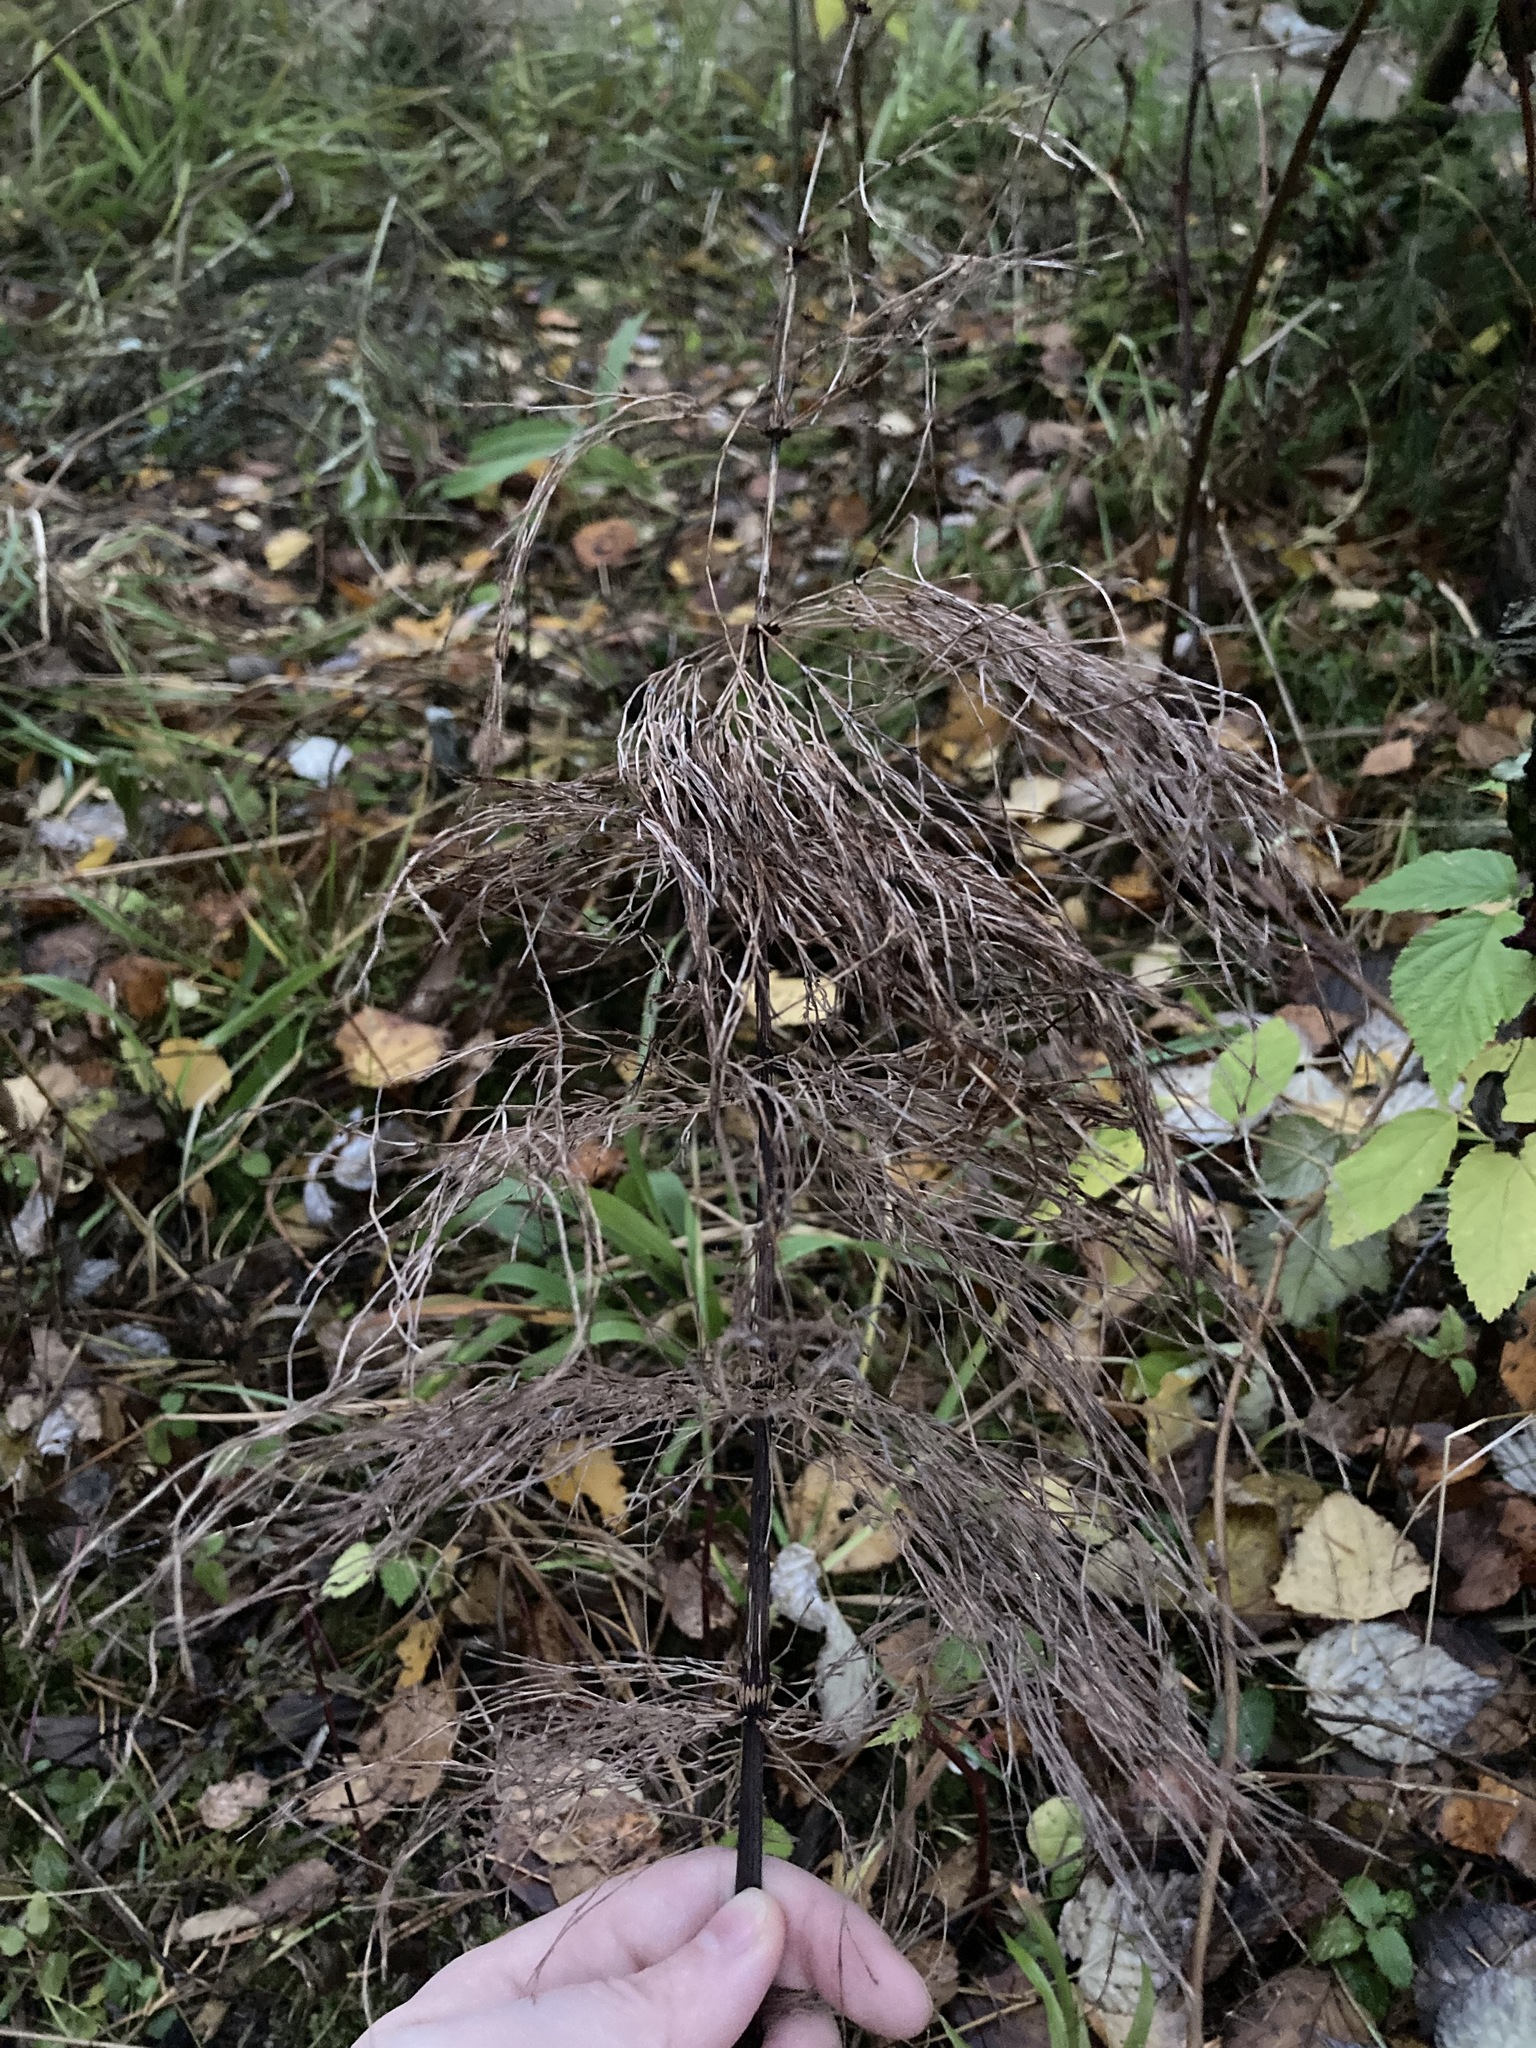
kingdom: Plantae
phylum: Tracheophyta
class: Polypodiopsida
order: Equisetales
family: Equisetaceae
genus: Equisetum
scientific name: Equisetum sylvaticum
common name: Wood horsetail
